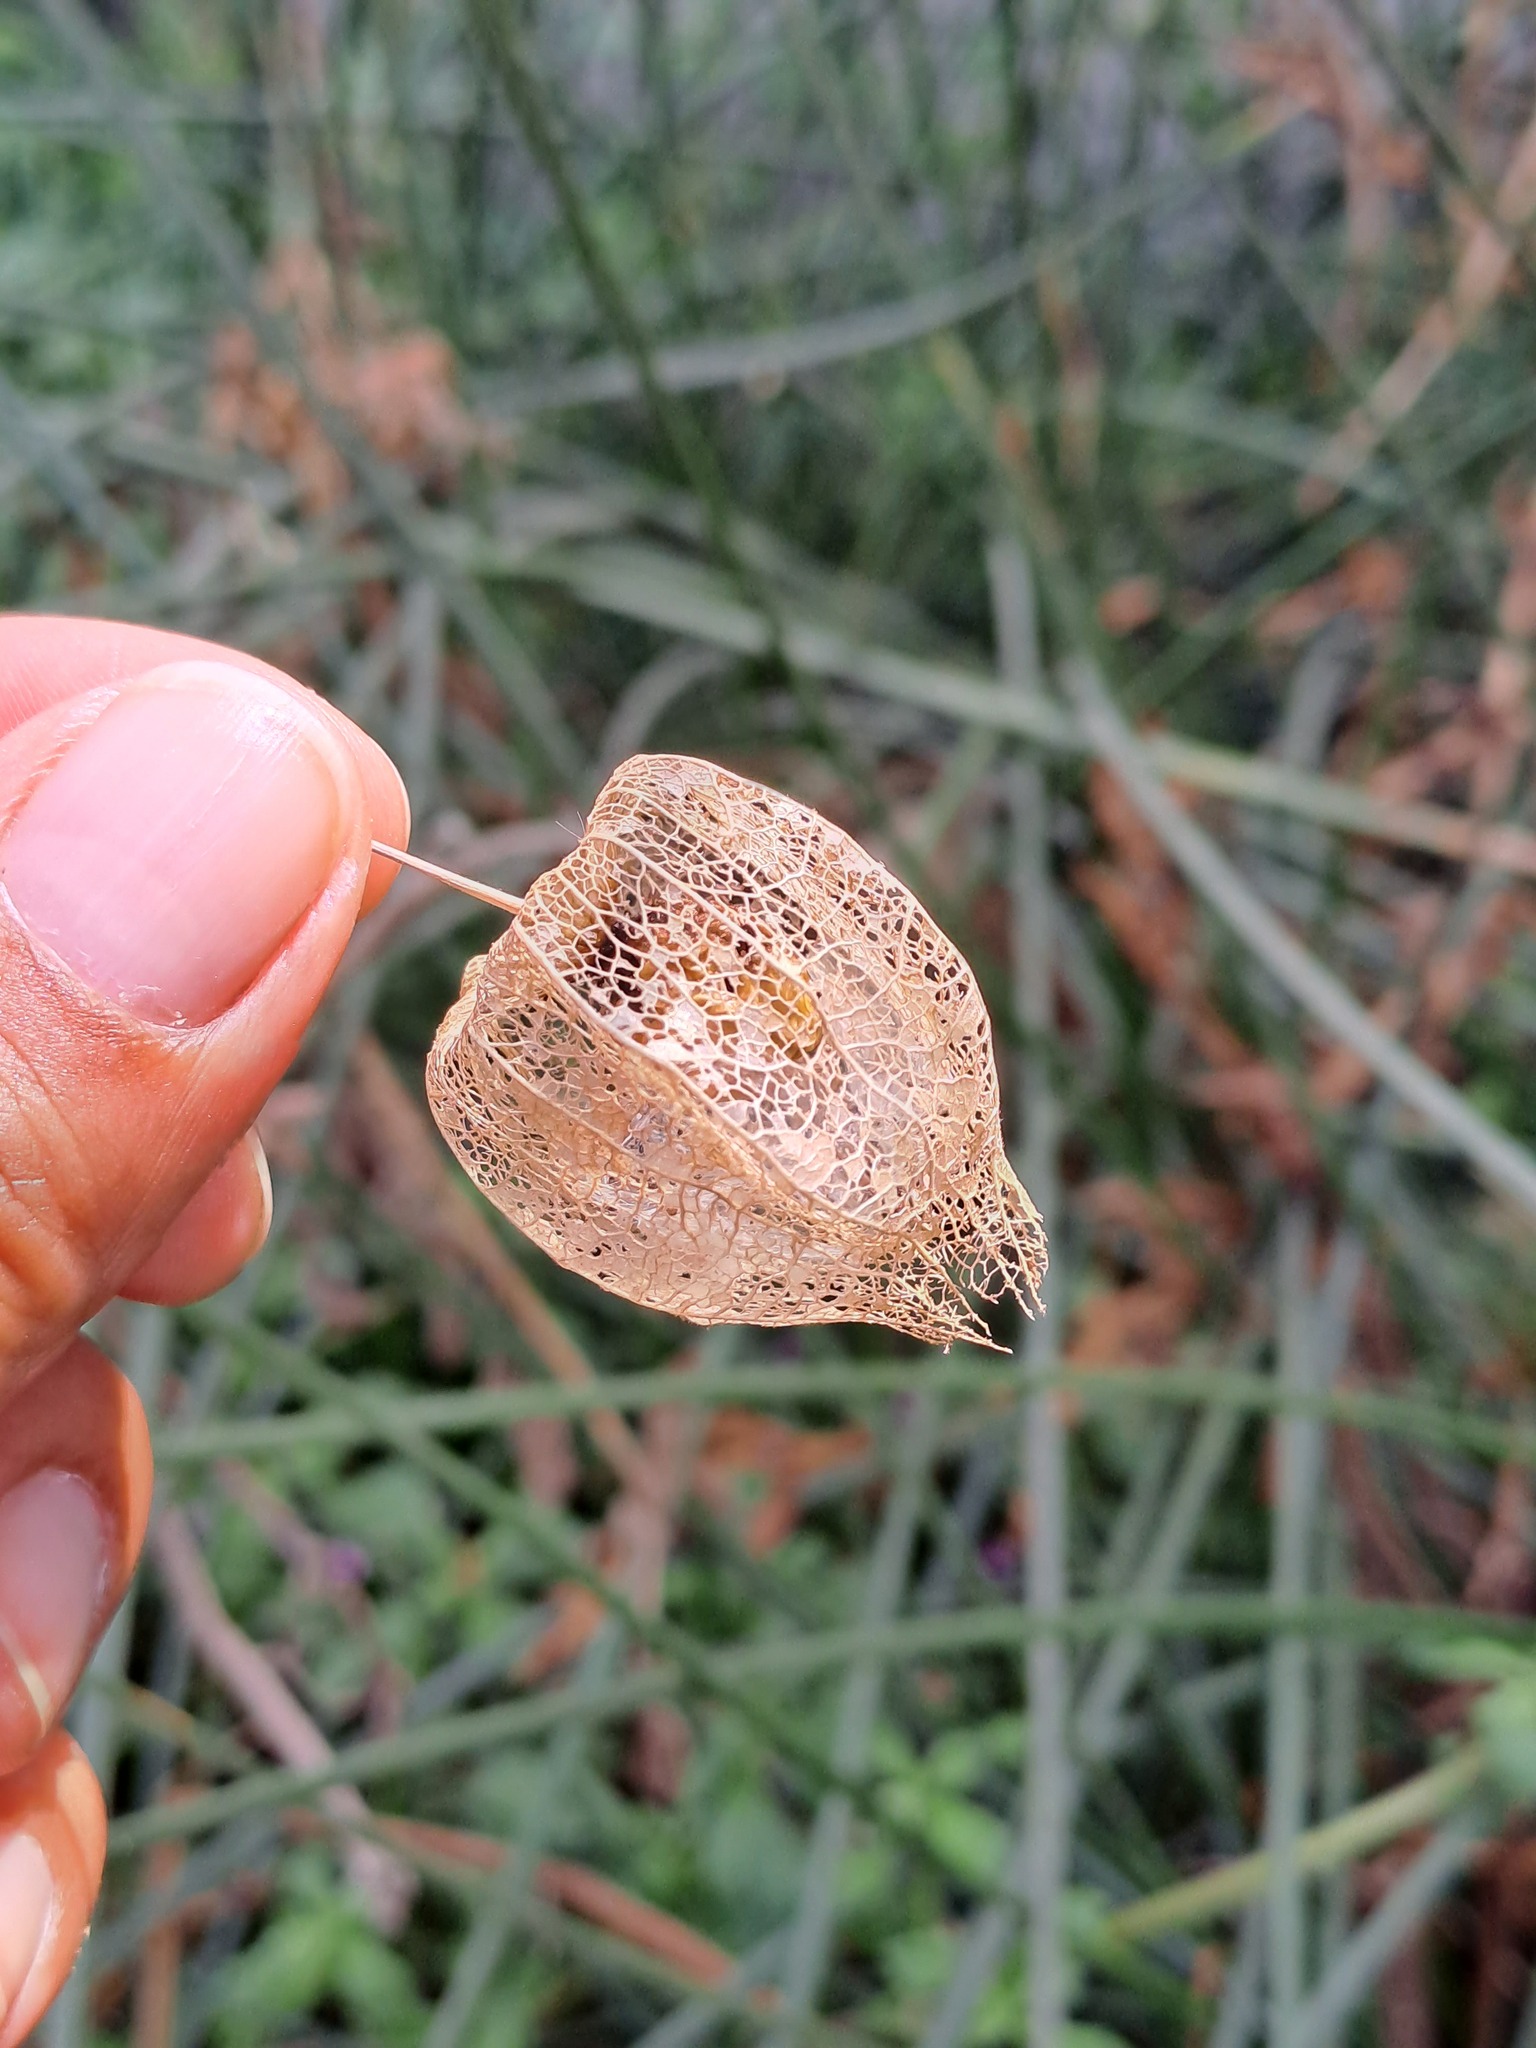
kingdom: Plantae
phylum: Tracheophyta
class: Magnoliopsida
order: Solanales
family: Solanaceae
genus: Physalis
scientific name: Physalis
